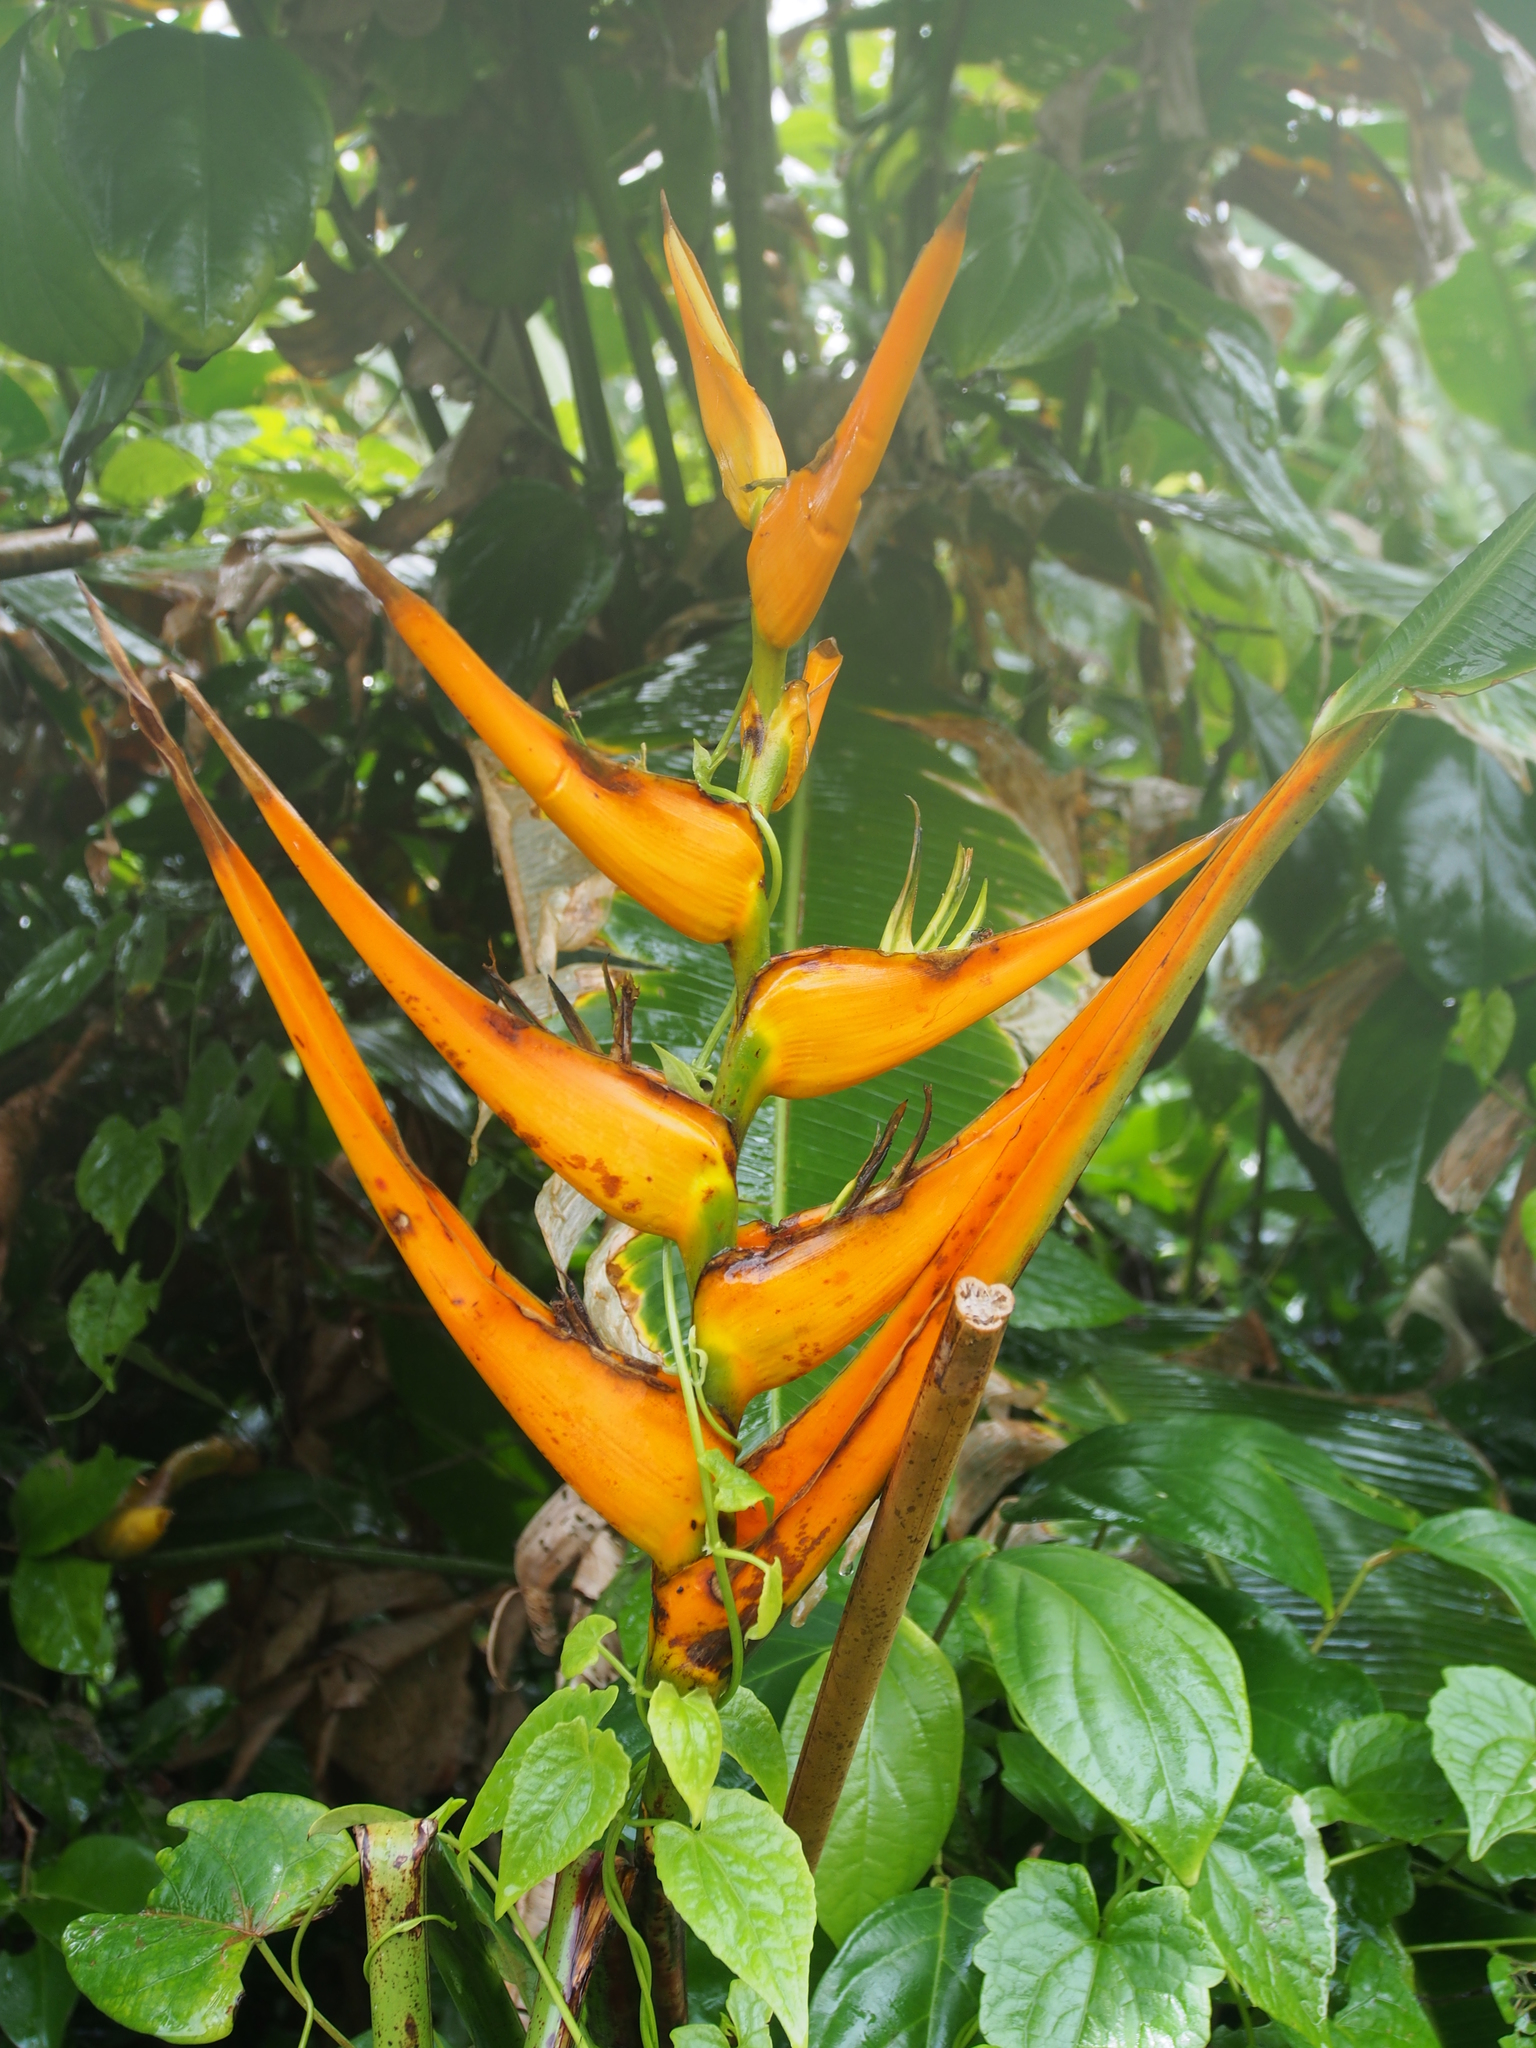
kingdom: Plantae
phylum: Tracheophyta
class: Liliopsida
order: Zingiberales
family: Heliconiaceae
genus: Heliconia
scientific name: Heliconia latispatha
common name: Expanded lobsterclaw
